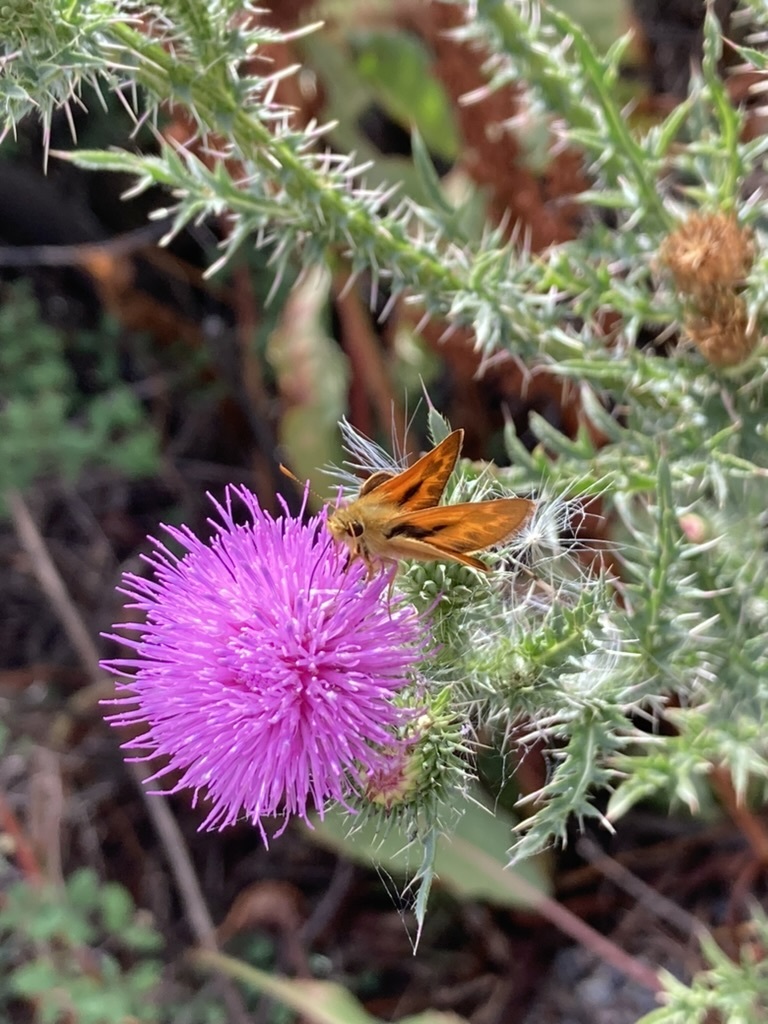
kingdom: Animalia
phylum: Arthropoda
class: Insecta
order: Lepidoptera
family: Hesperiidae
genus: Ochlodes
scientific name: Ochlodes sylvanoides
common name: Woodland skipper
